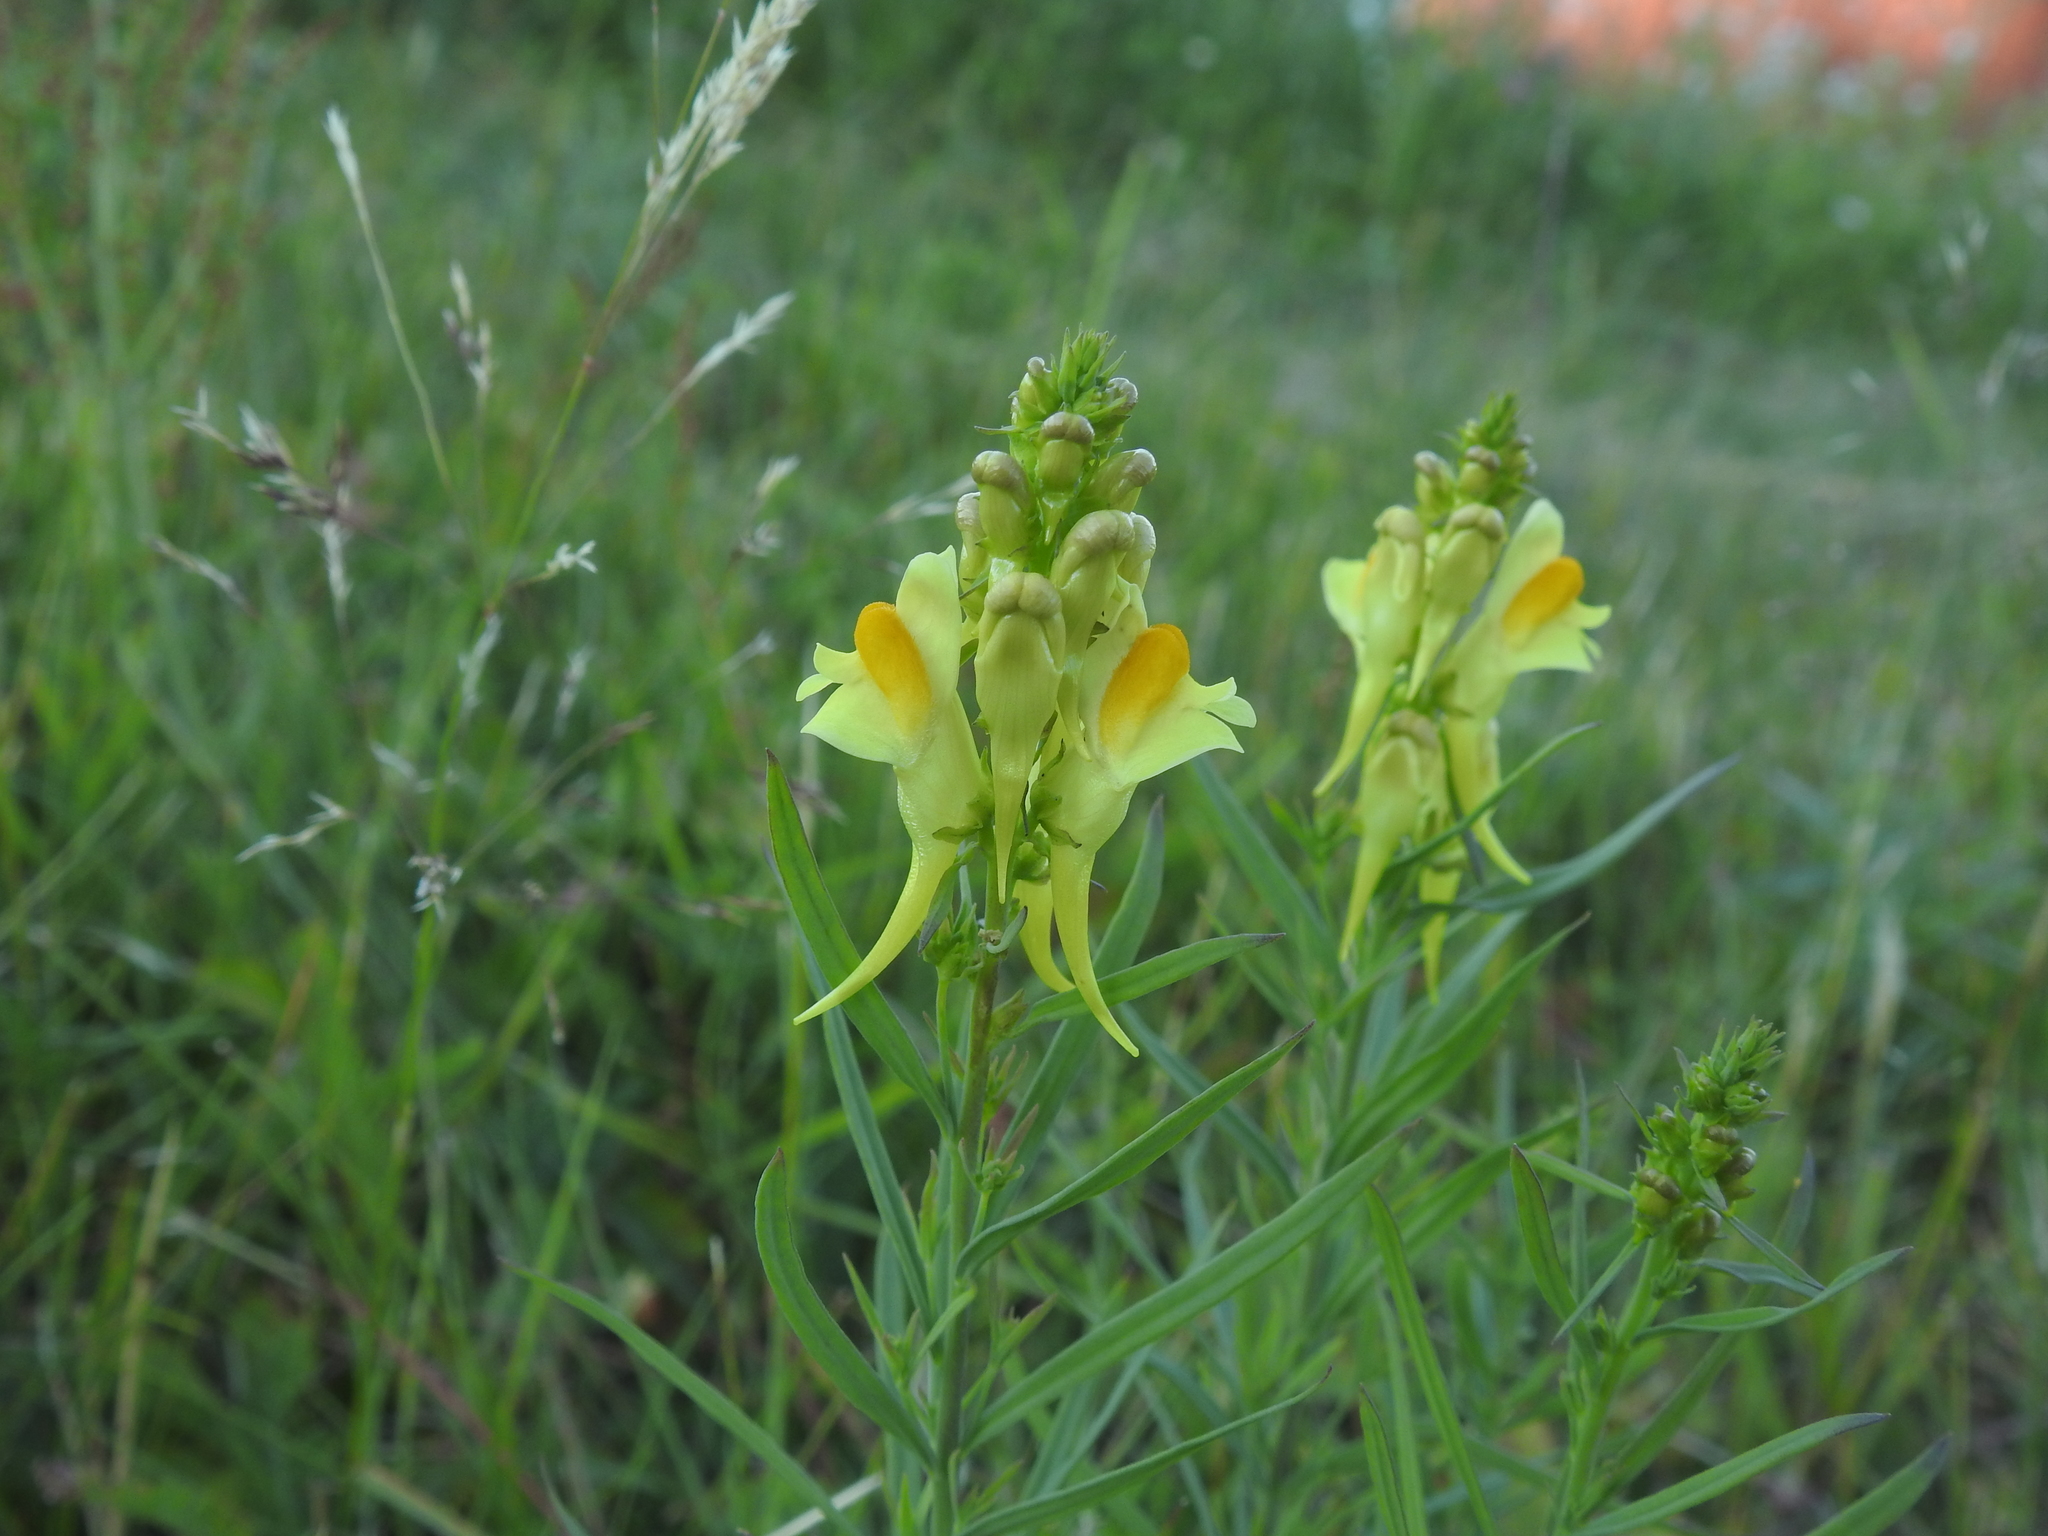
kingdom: Plantae
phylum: Tracheophyta
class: Magnoliopsida
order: Lamiales
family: Plantaginaceae
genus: Linaria
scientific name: Linaria vulgaris
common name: Butter and eggs
